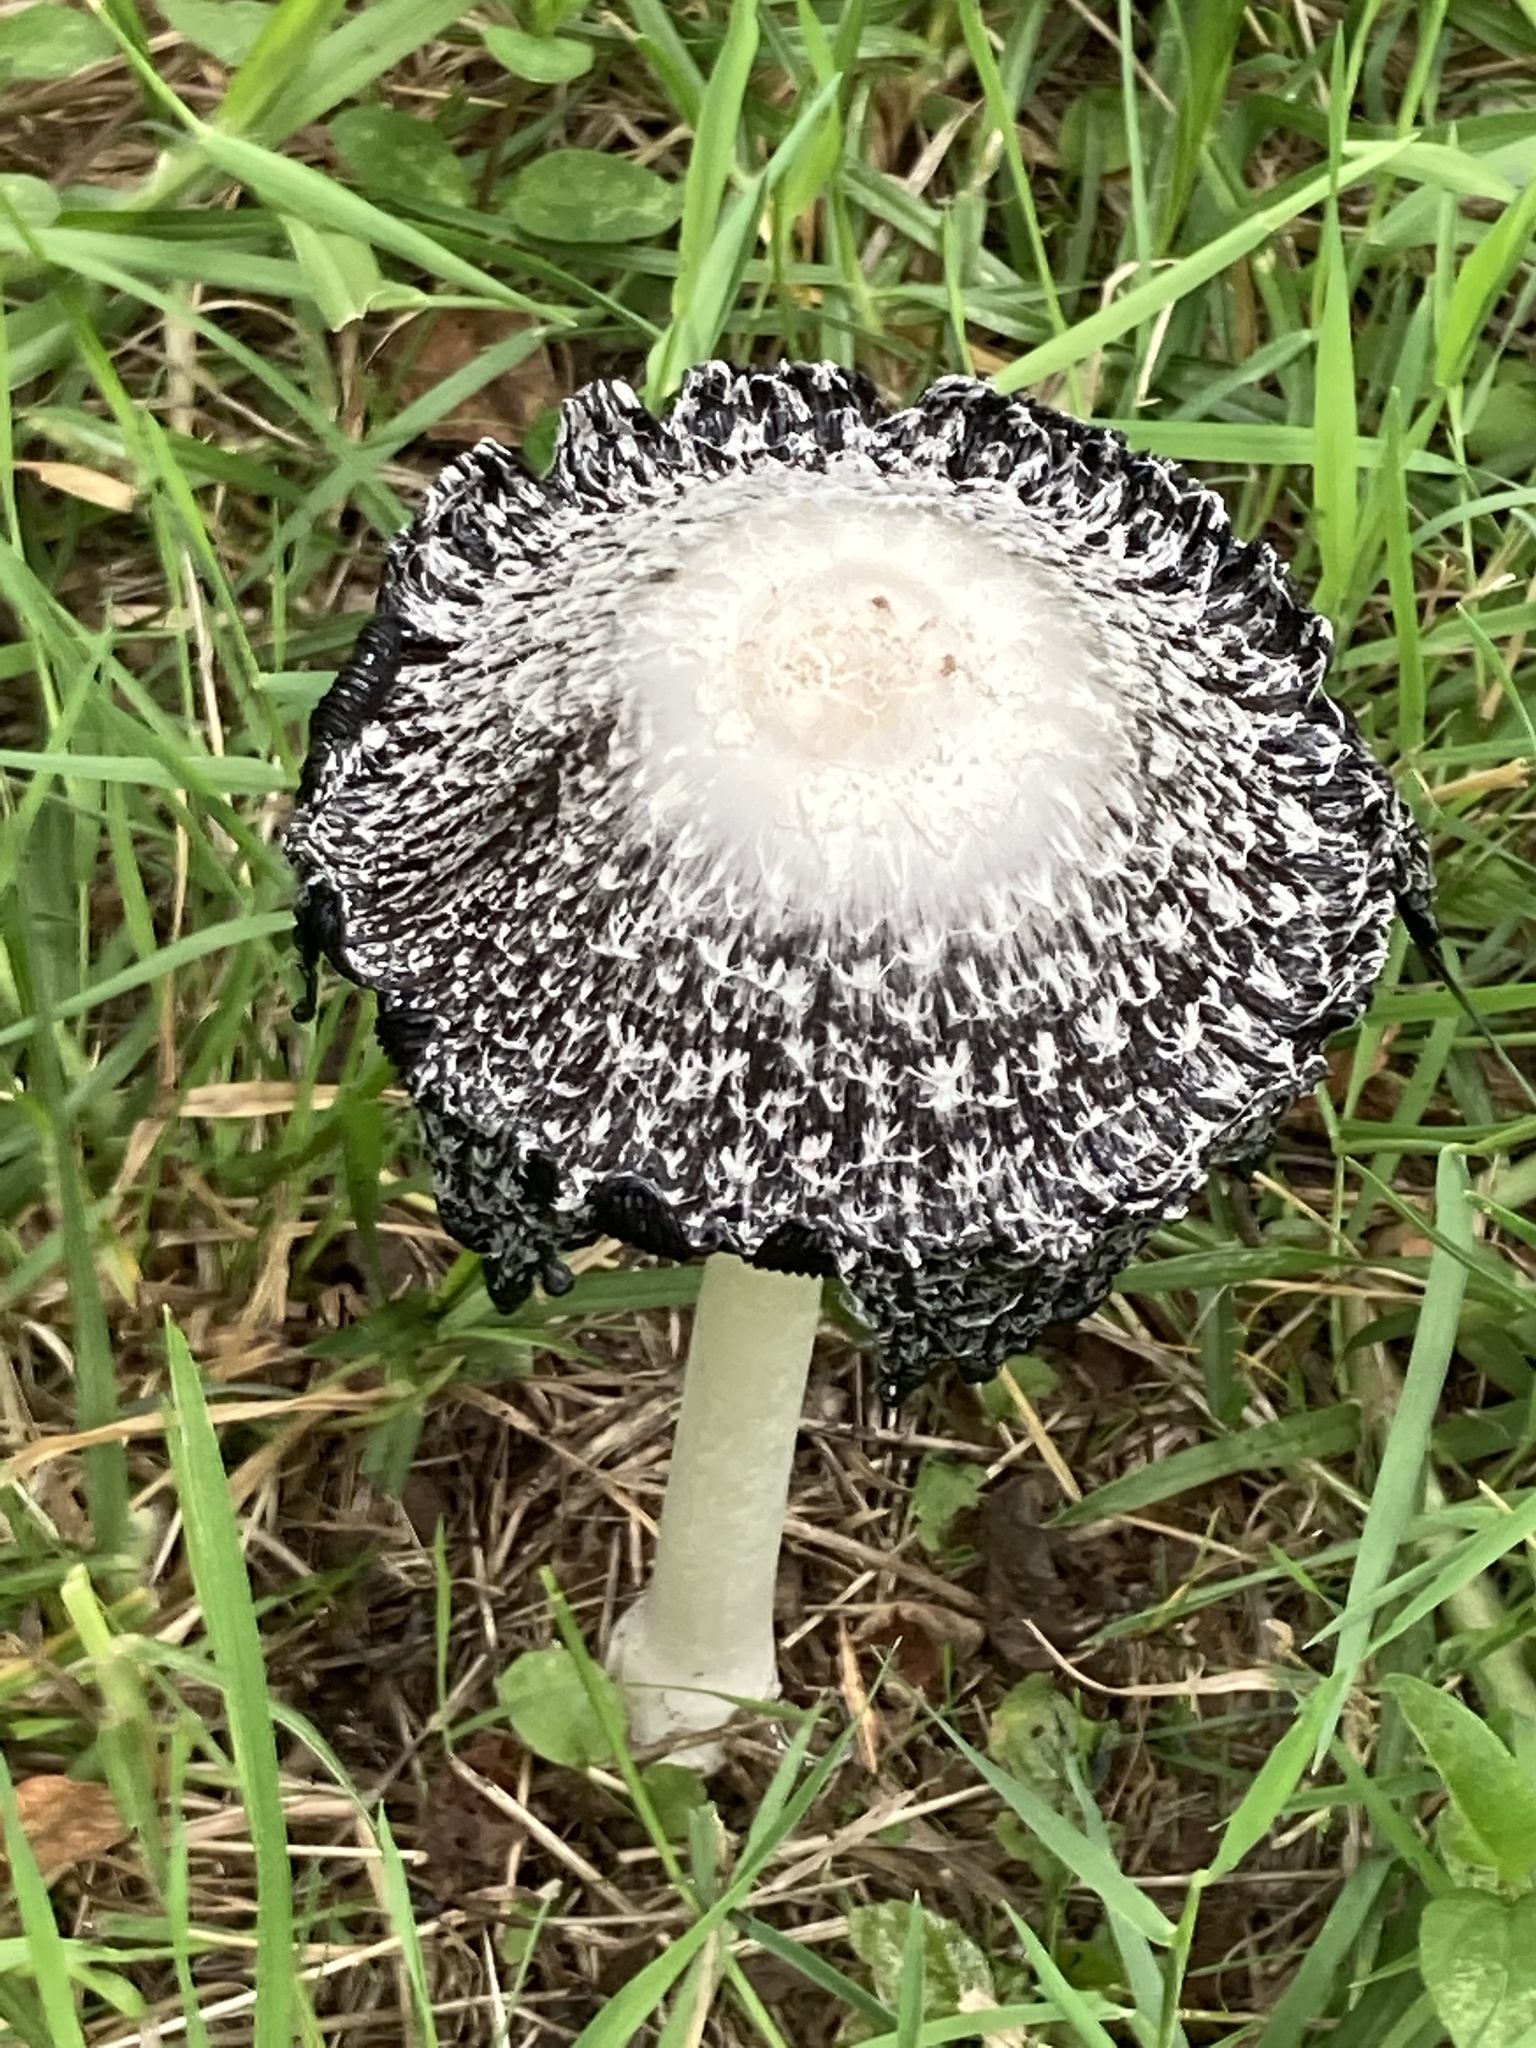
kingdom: Fungi
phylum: Basidiomycota
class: Agaricomycetes
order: Agaricales
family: Agaricaceae
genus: Coprinus
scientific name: Coprinus comatus
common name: Lawyer's wig
